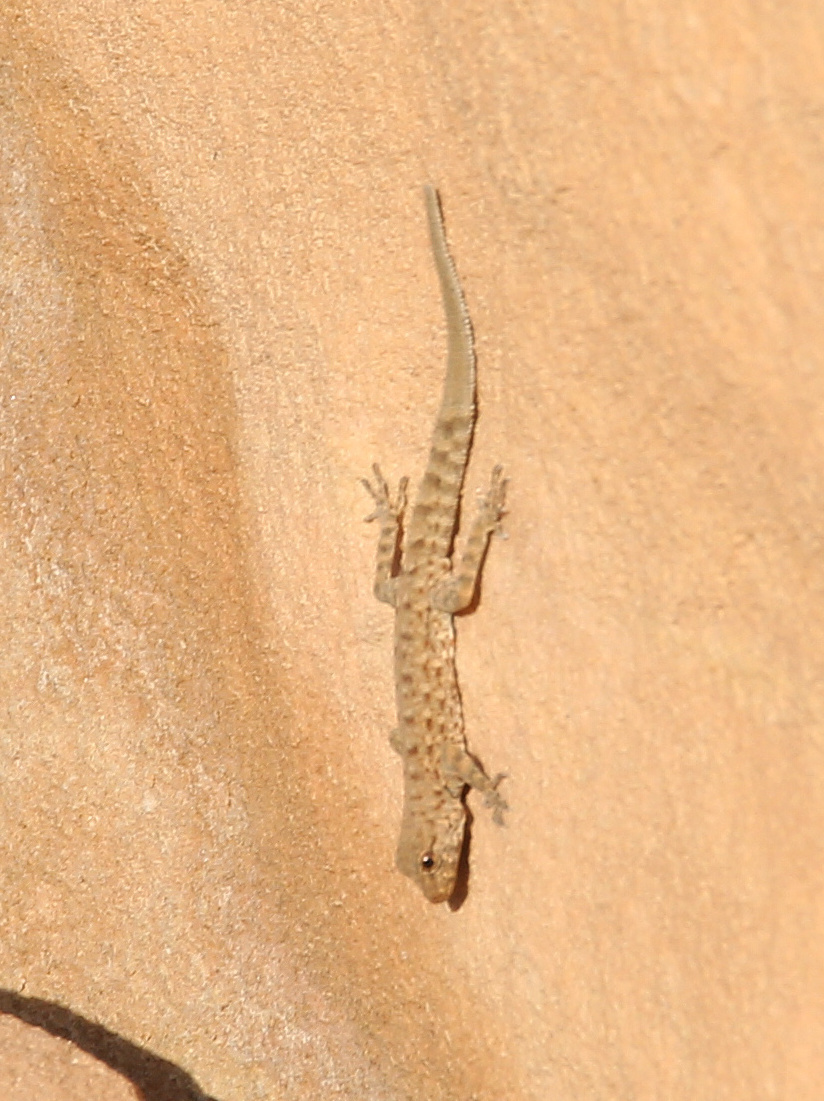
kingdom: Animalia
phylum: Chordata
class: Squamata
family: Sphaerodactylidae
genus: Pristurus
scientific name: Pristurus rupestris
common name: Blanford’s semaphore gecko
